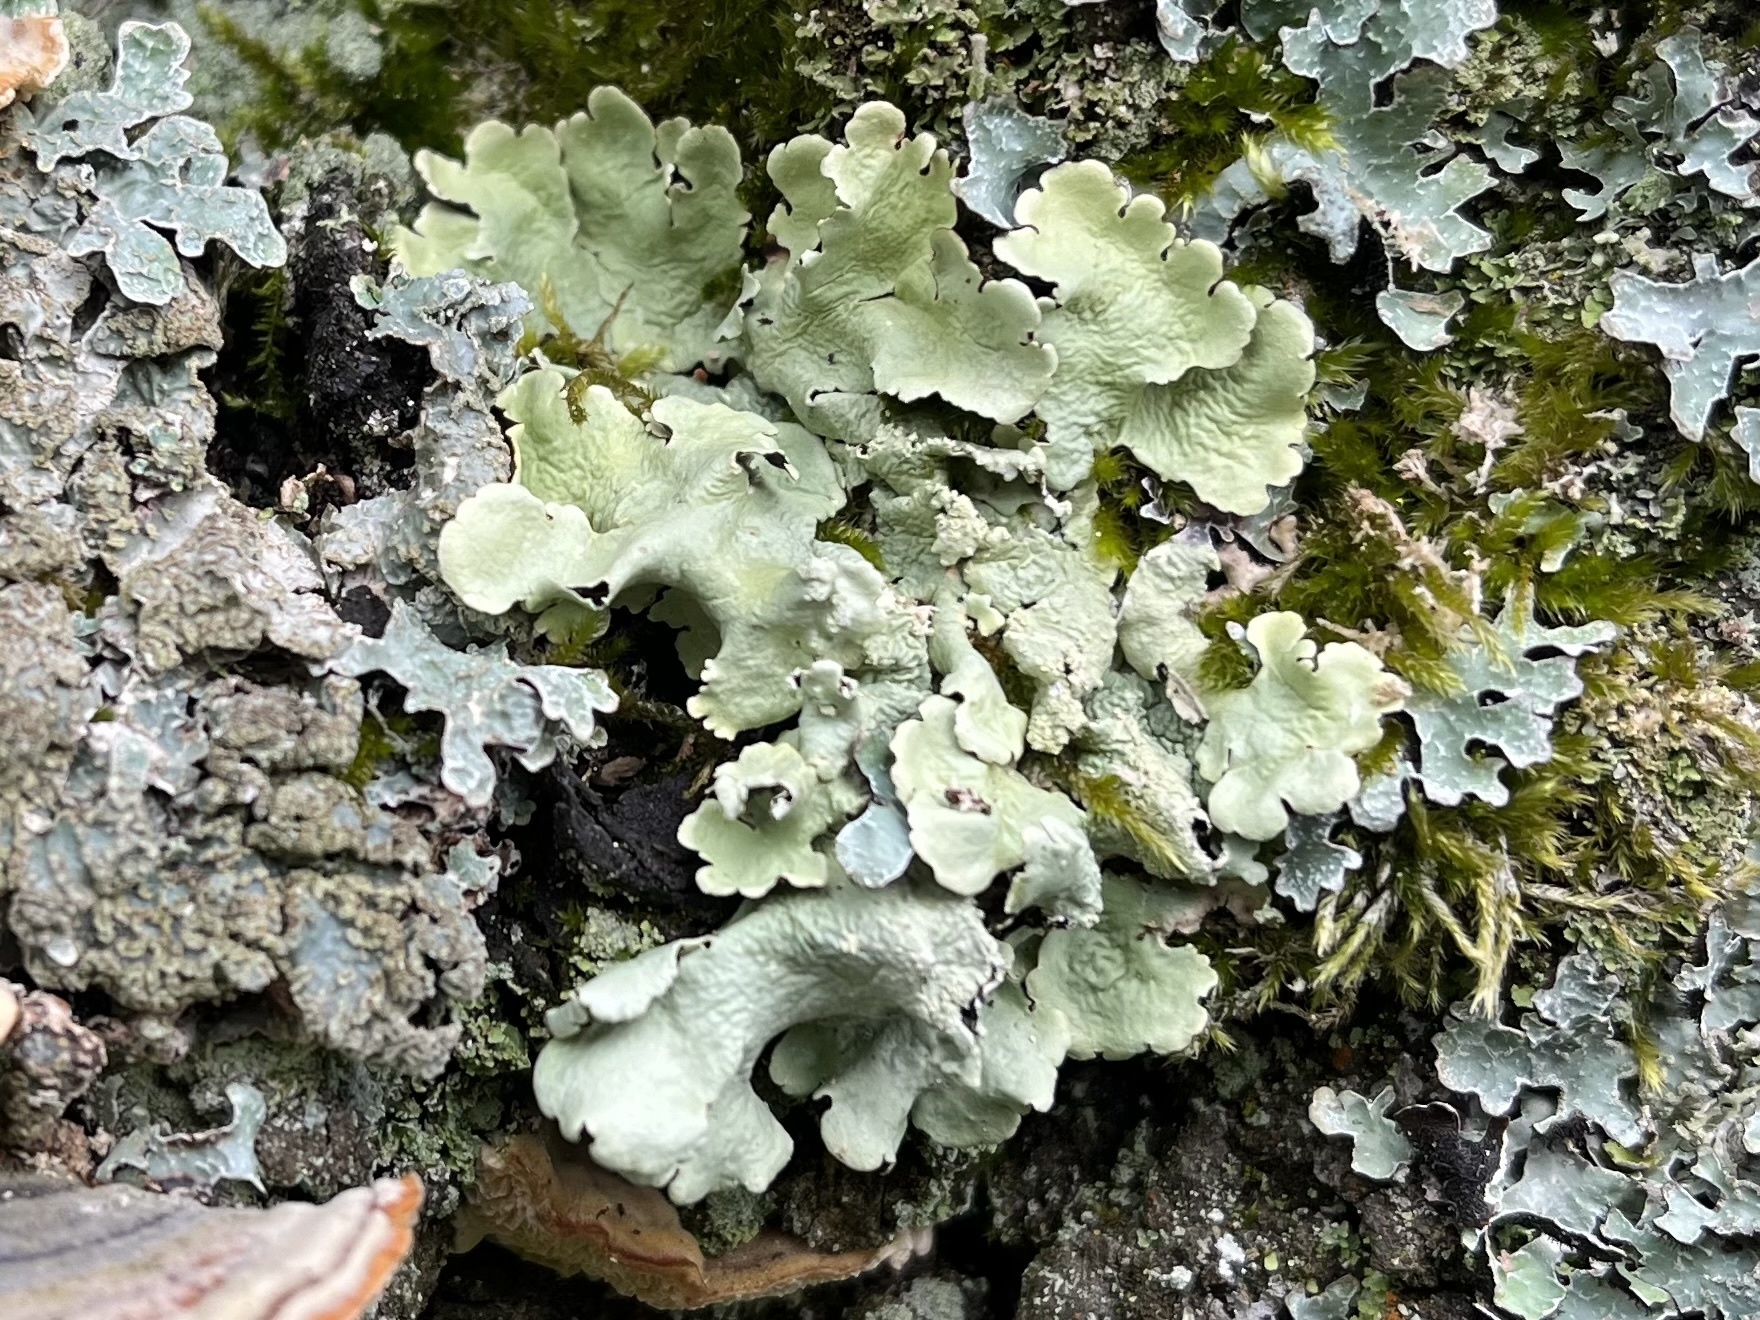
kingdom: Fungi
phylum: Ascomycota
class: Lecanoromycetes
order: Lecanorales
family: Parmeliaceae
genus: Flavoparmelia
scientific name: Flavoparmelia caperata
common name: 40-mile per hour lichen
